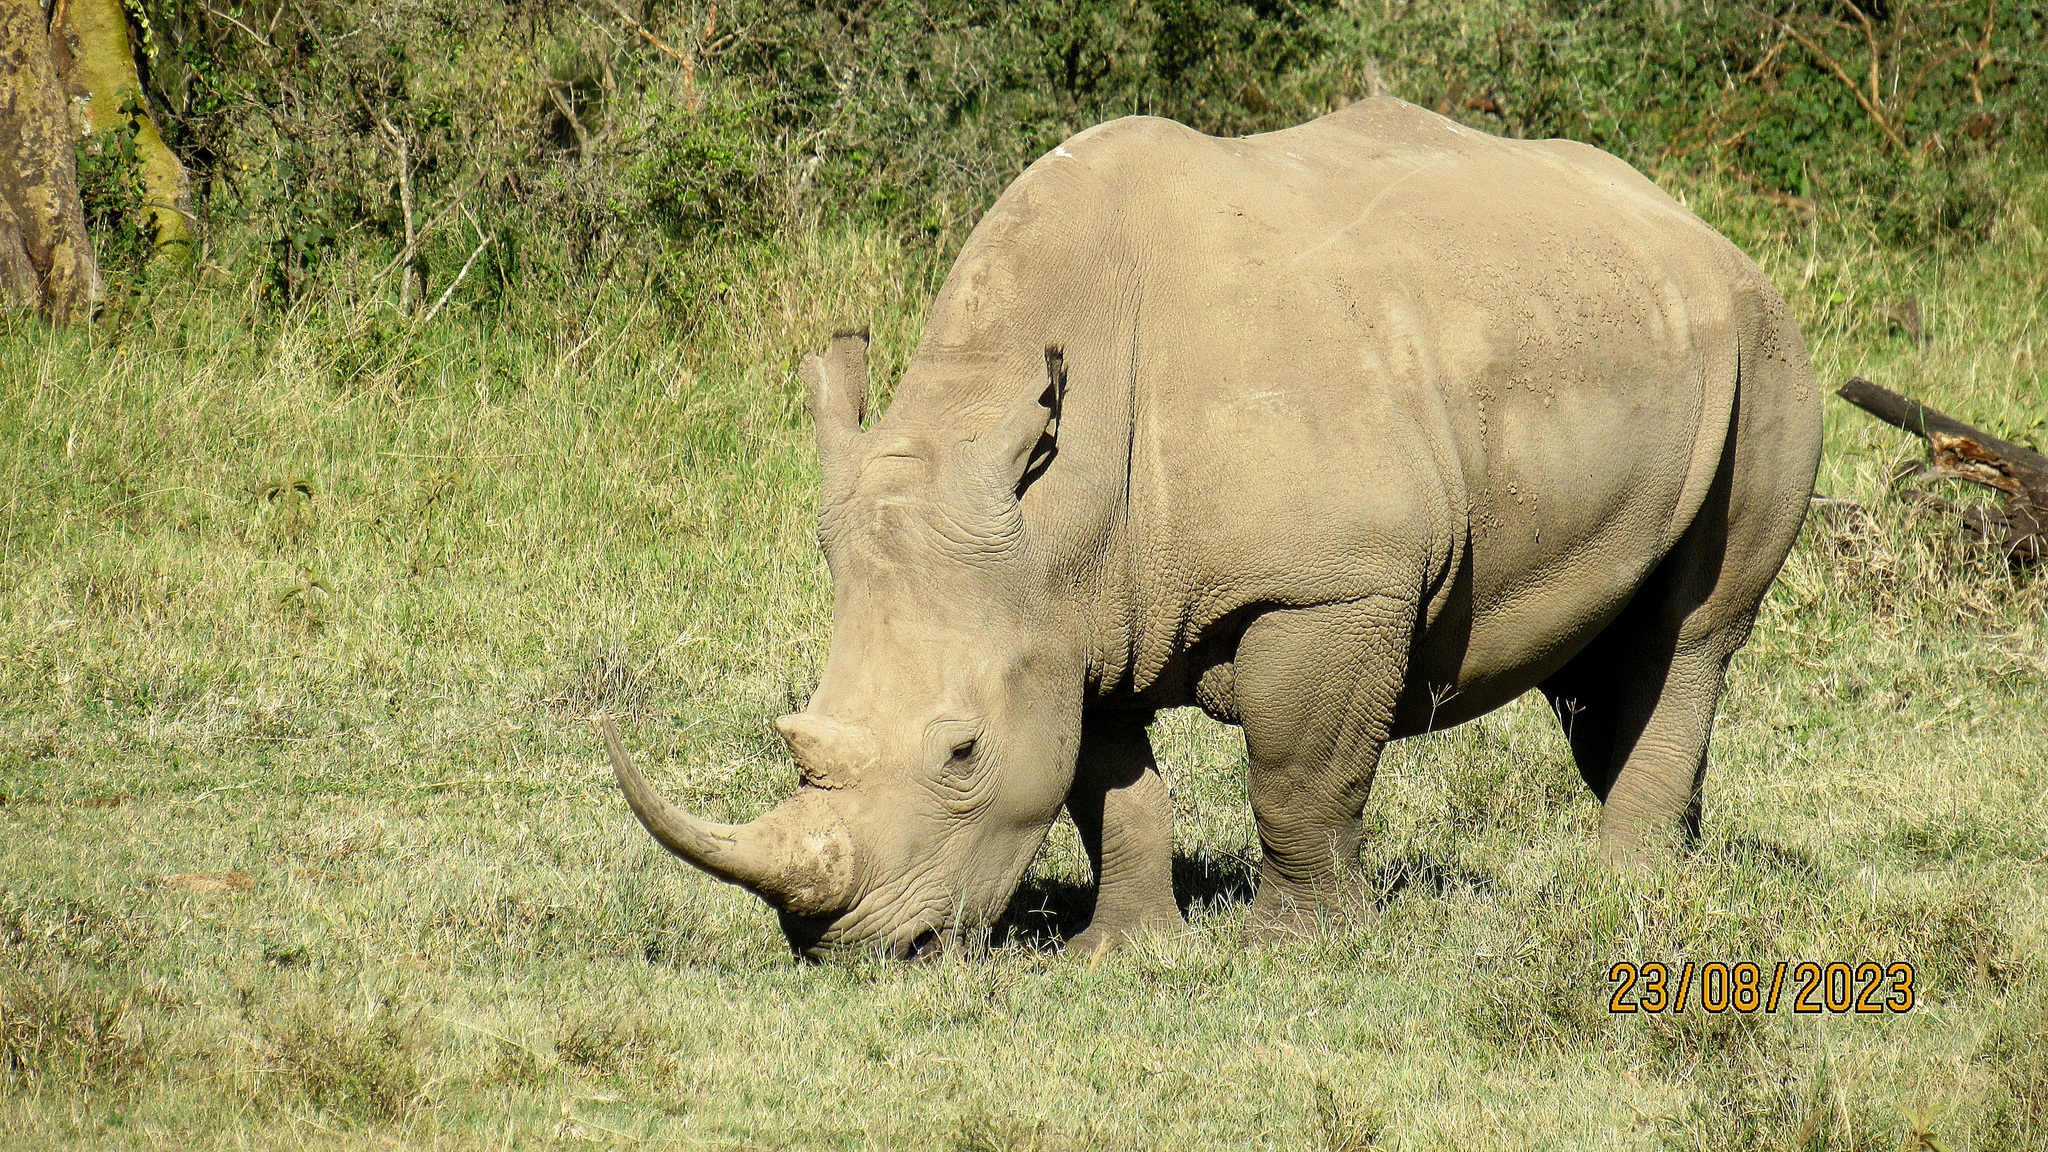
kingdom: Animalia
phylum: Chordata
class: Mammalia
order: Perissodactyla
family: Rhinocerotidae
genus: Ceratotherium
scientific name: Ceratotherium simum
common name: White rhinoceros
